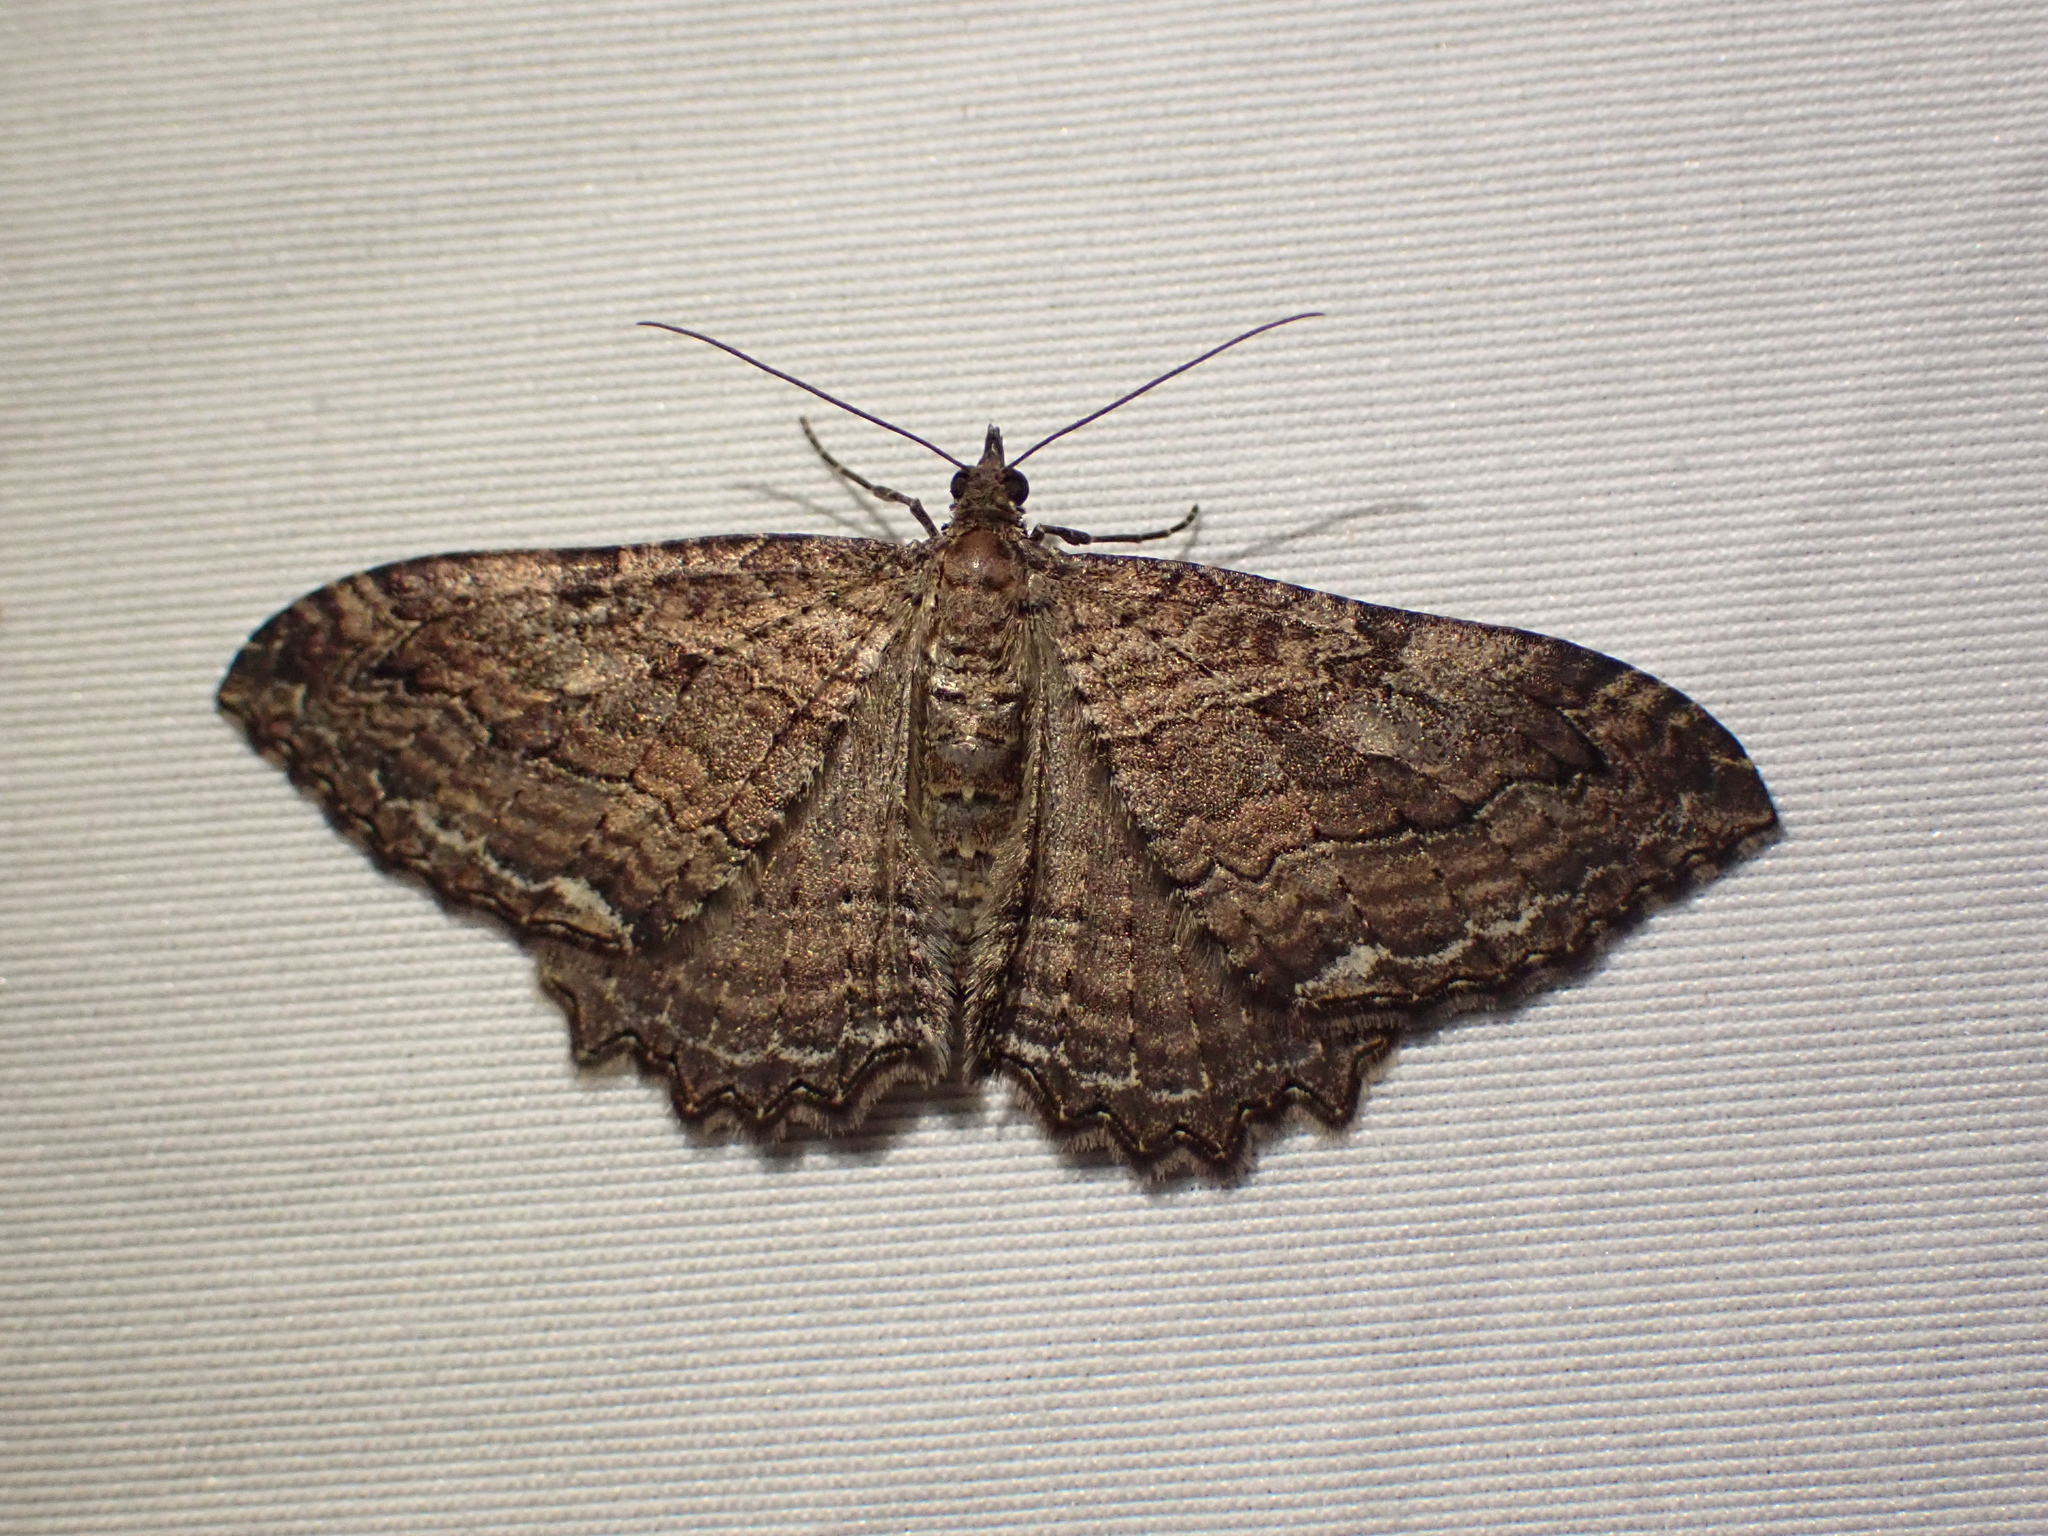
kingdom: Animalia
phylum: Arthropoda
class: Insecta
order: Lepidoptera
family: Geometridae
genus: Rheumaptera
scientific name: Rheumaptera
